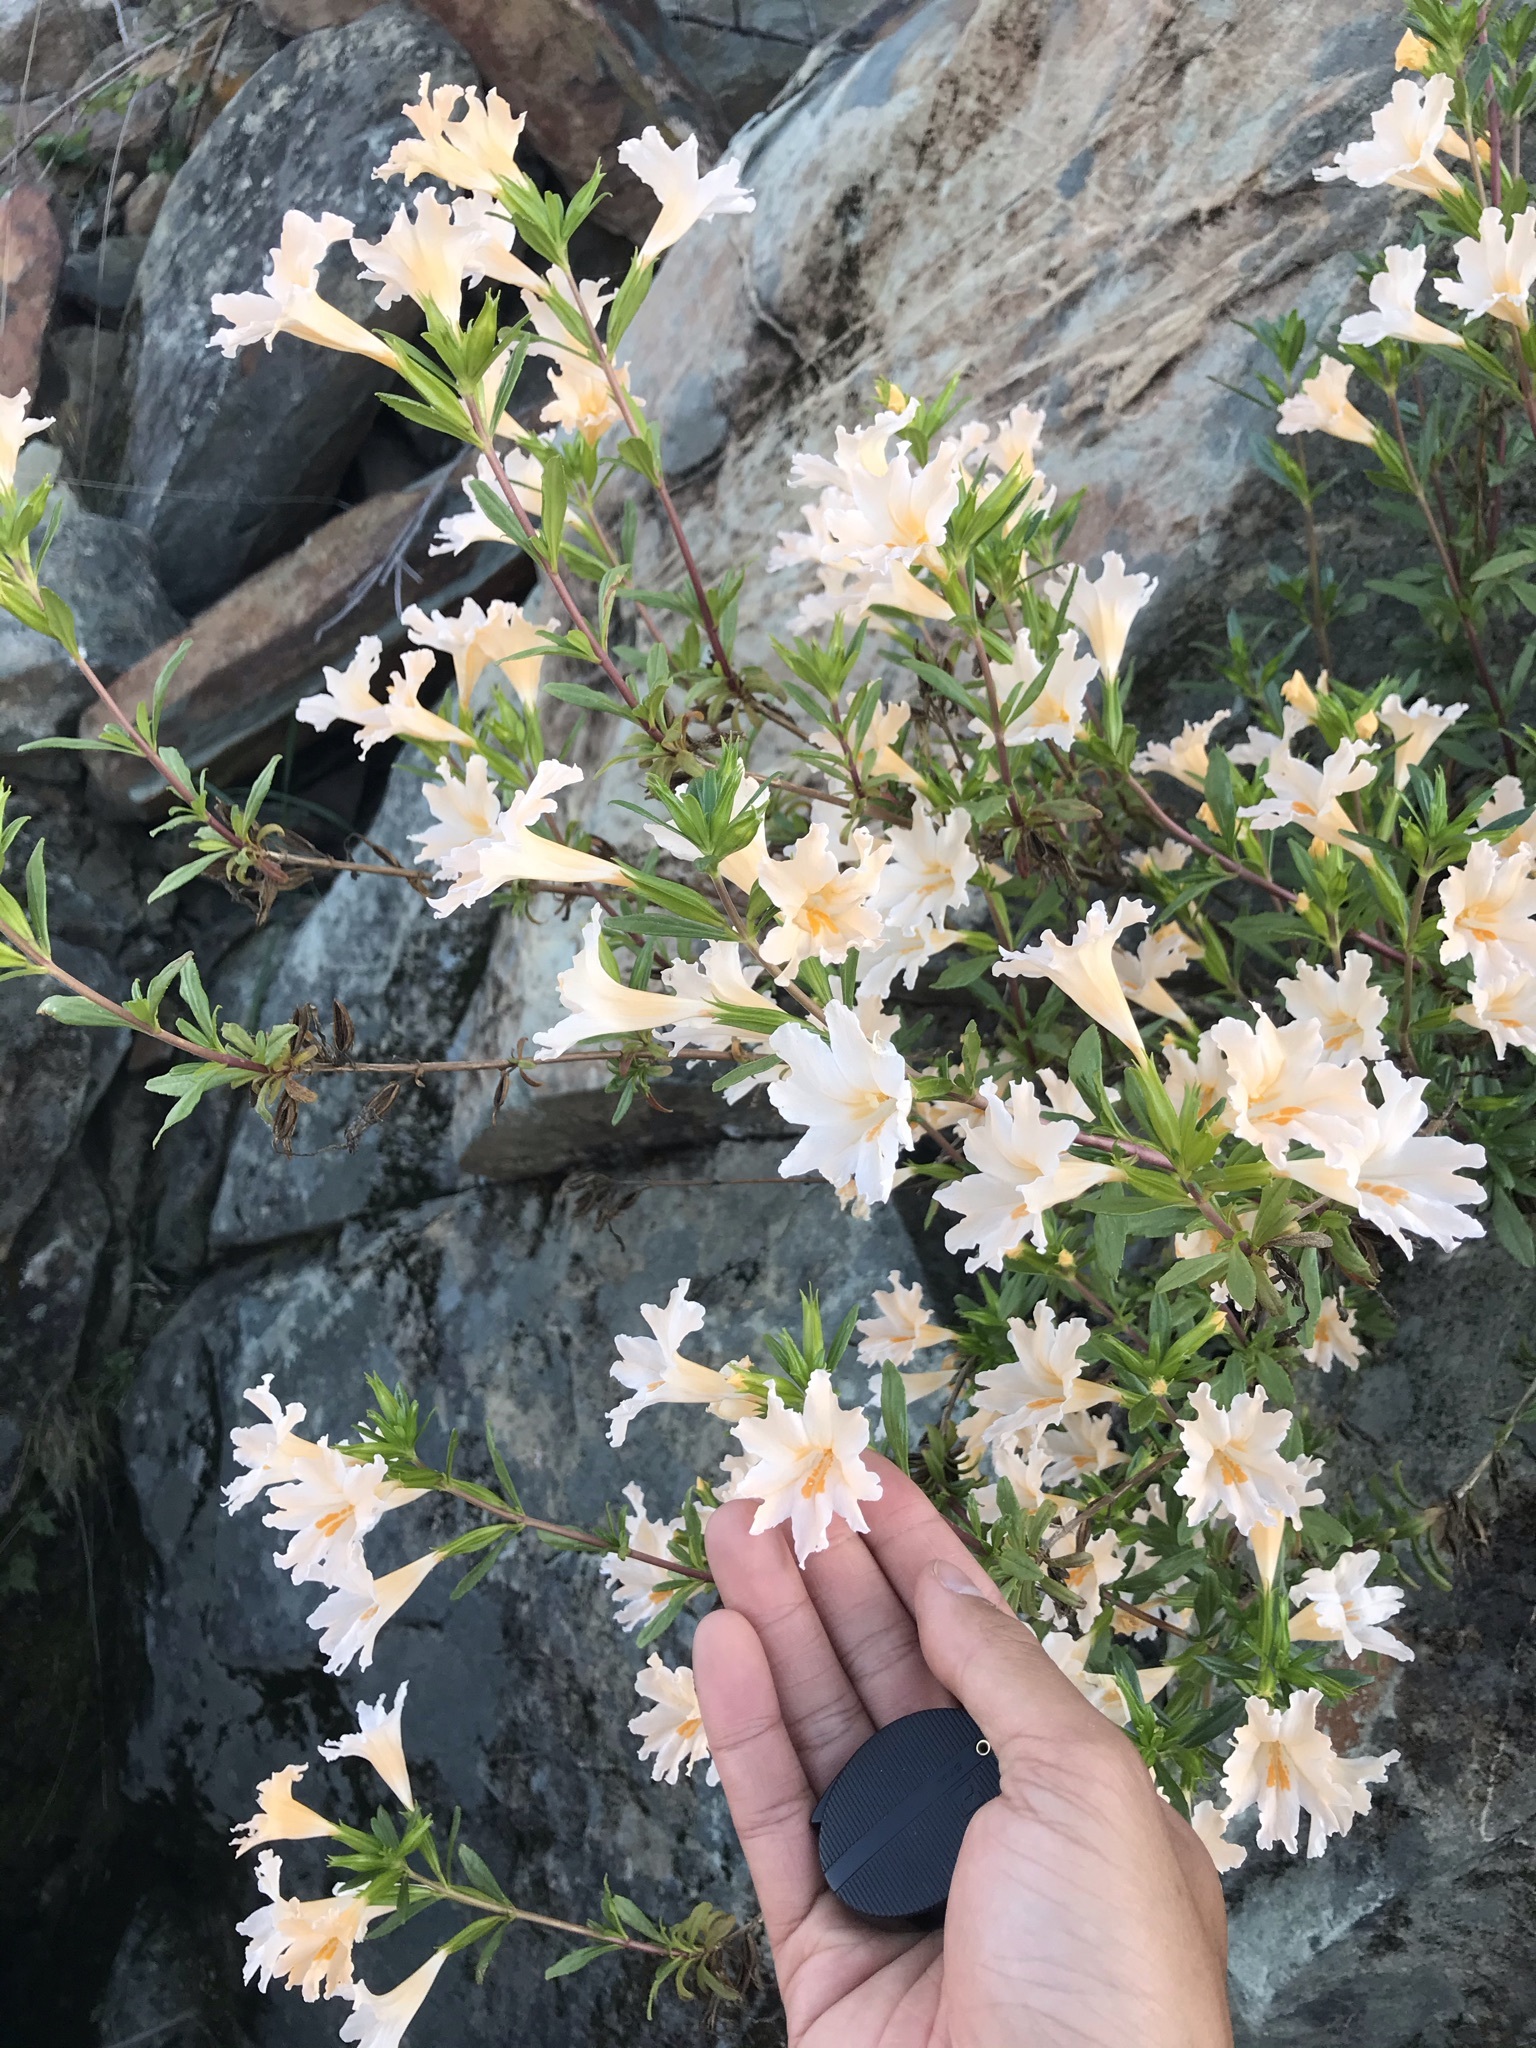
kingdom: Plantae
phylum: Tracheophyta
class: Magnoliopsida
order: Lamiales
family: Phrymaceae
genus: Diplacus
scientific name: Diplacus grandiflorus
